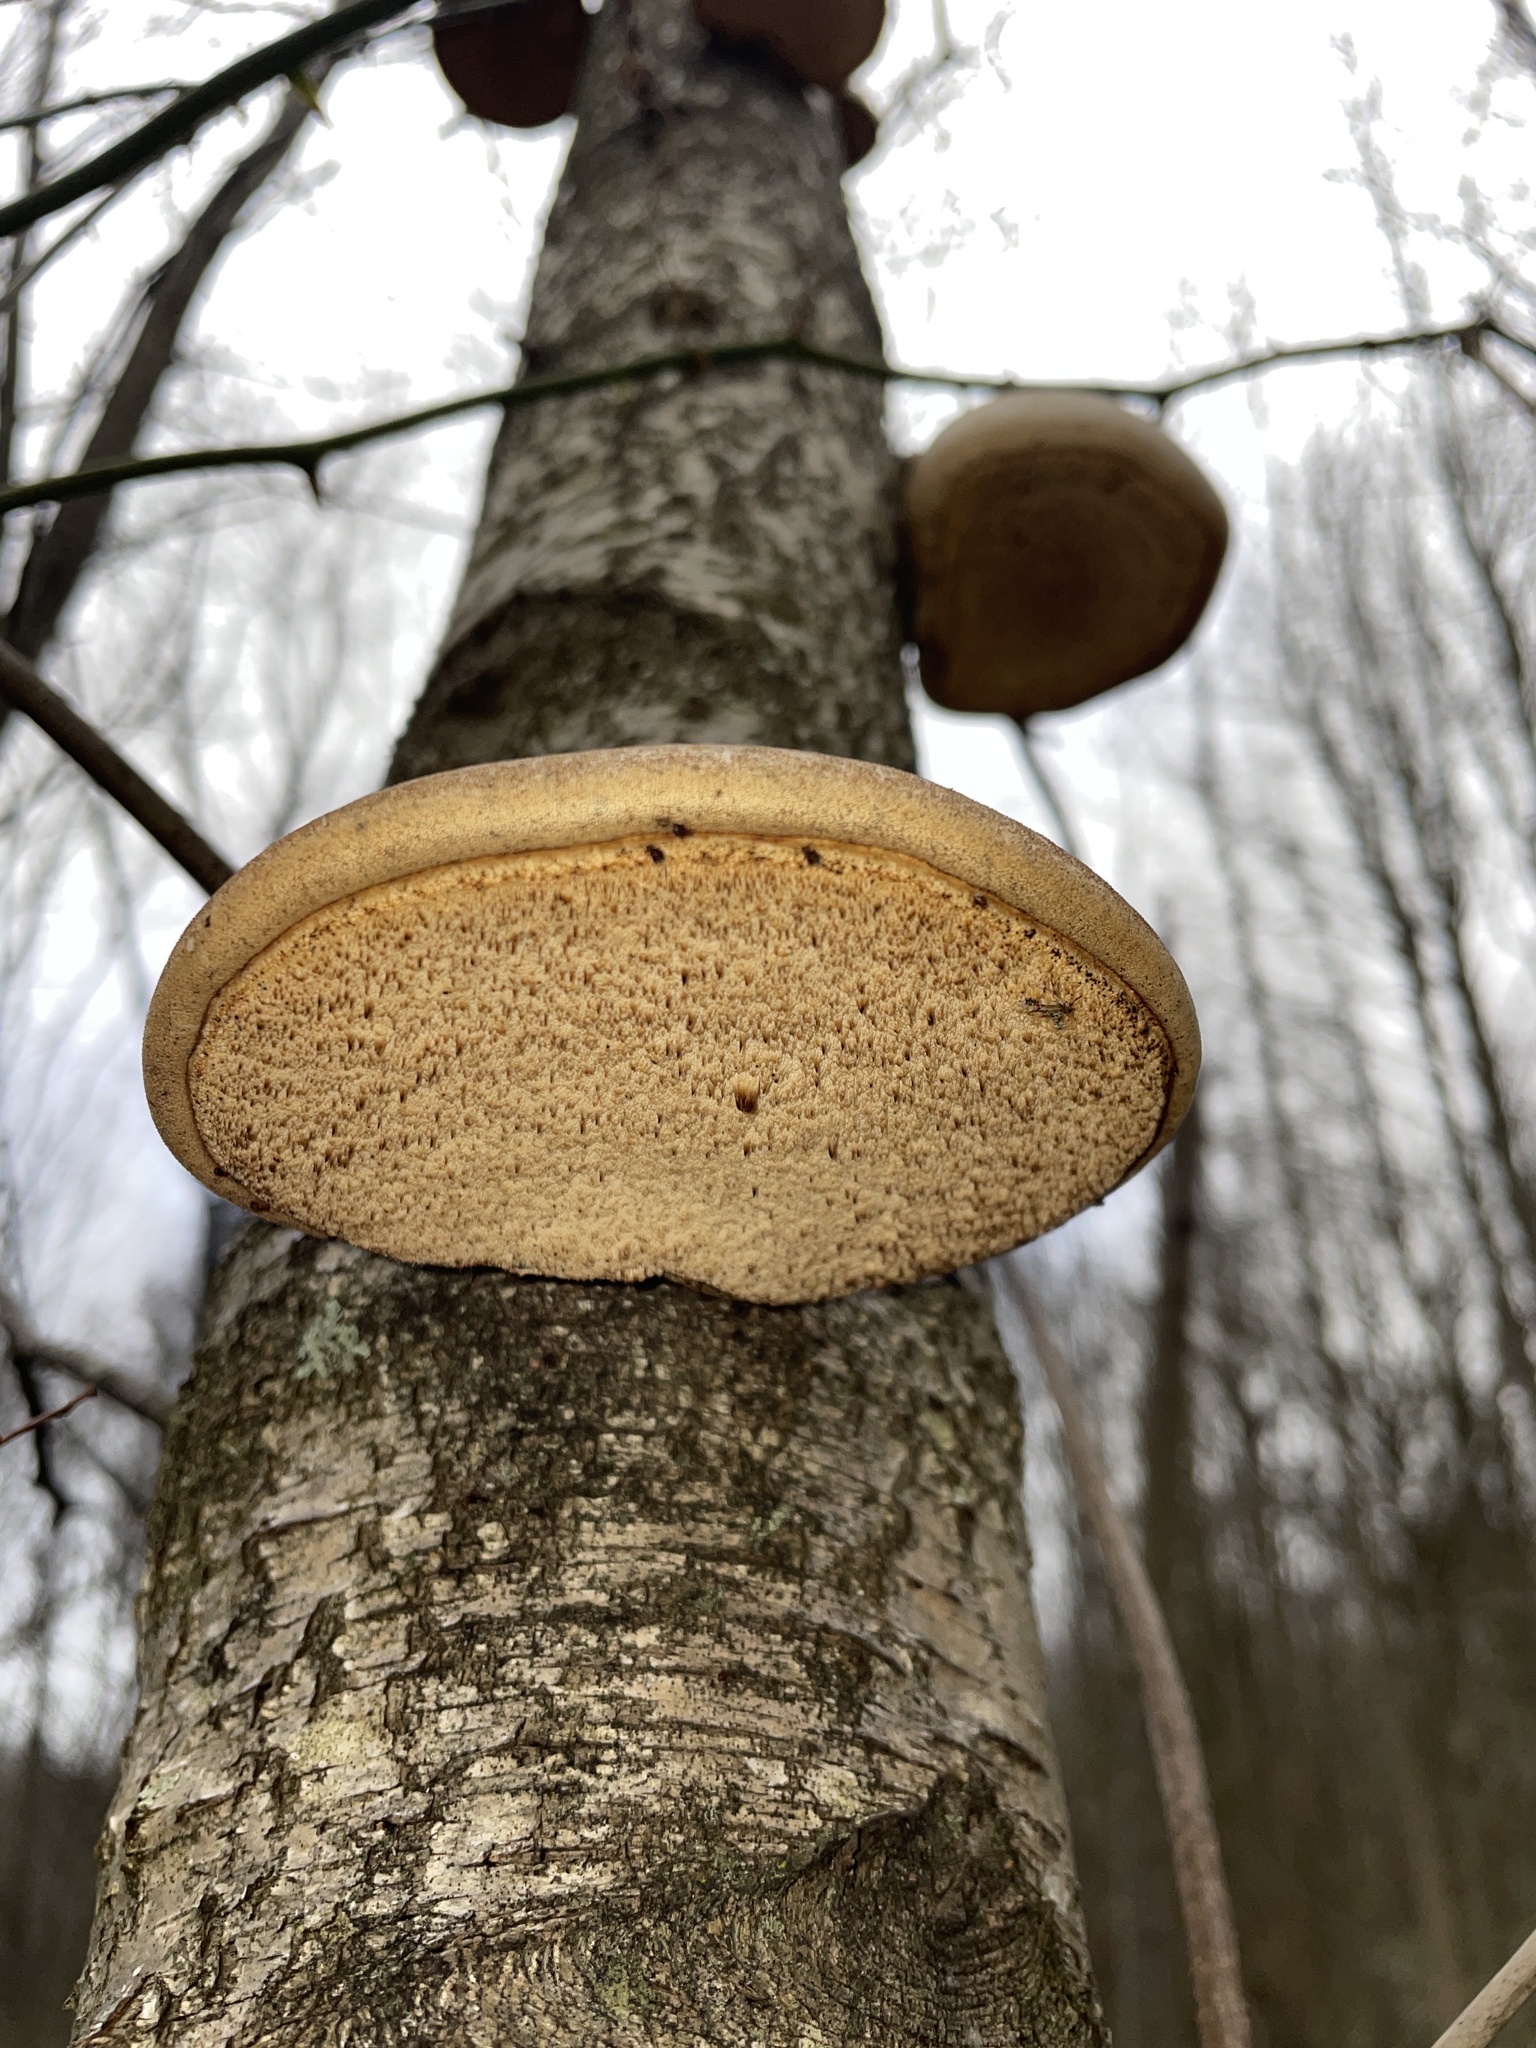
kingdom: Fungi
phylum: Basidiomycota
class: Agaricomycetes
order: Polyporales
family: Fomitopsidaceae
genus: Fomitopsis
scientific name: Fomitopsis betulina
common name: Birch polypore
